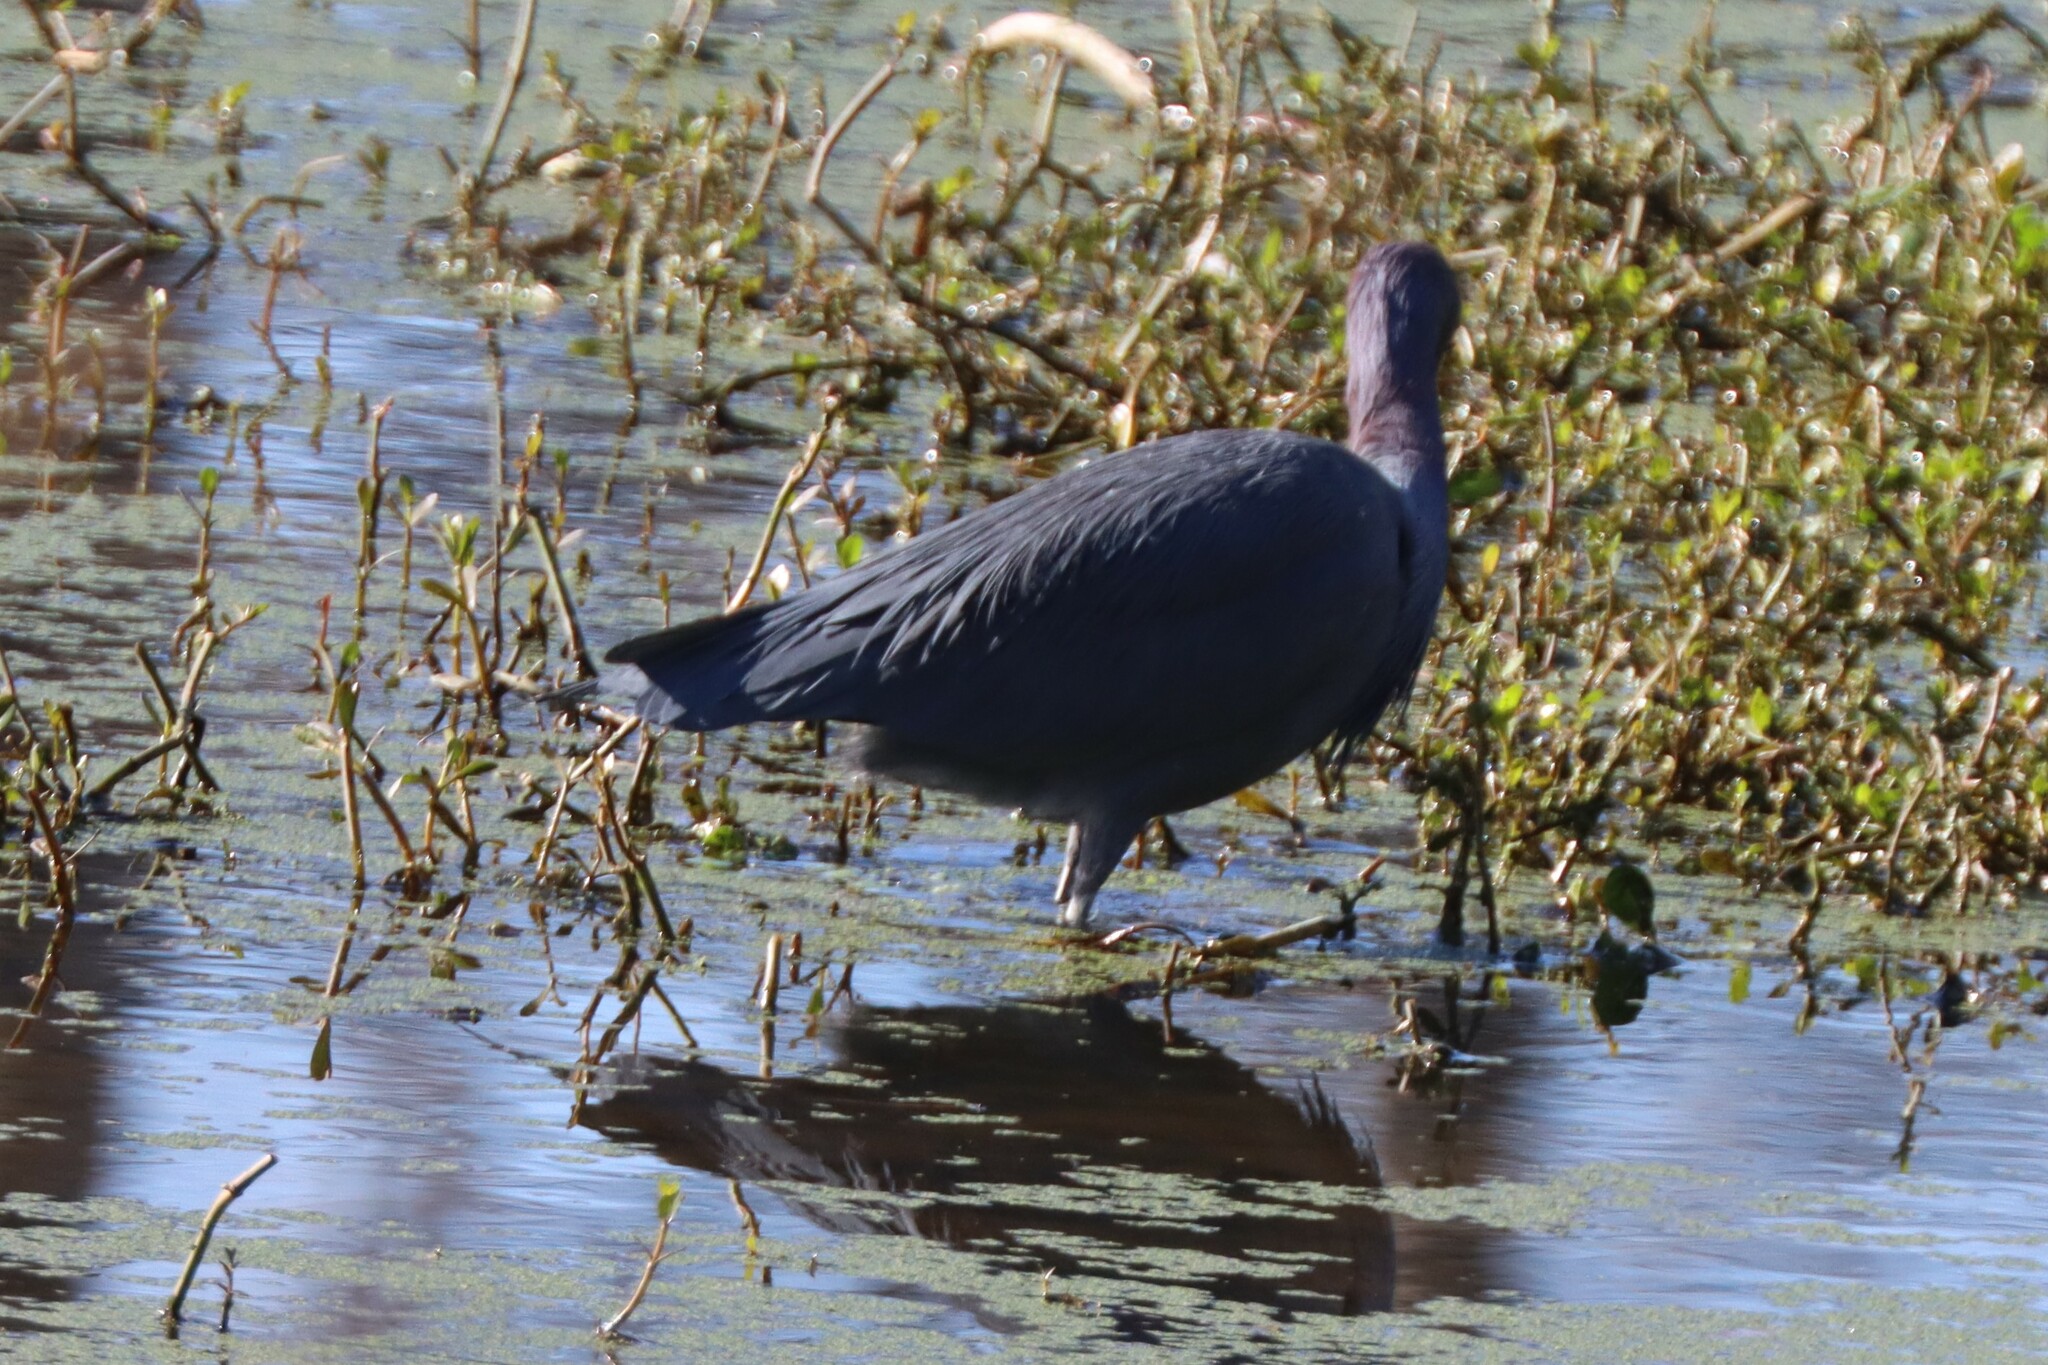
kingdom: Animalia
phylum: Chordata
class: Aves
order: Pelecaniformes
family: Ardeidae
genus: Egretta
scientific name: Egretta caerulea
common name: Little blue heron
